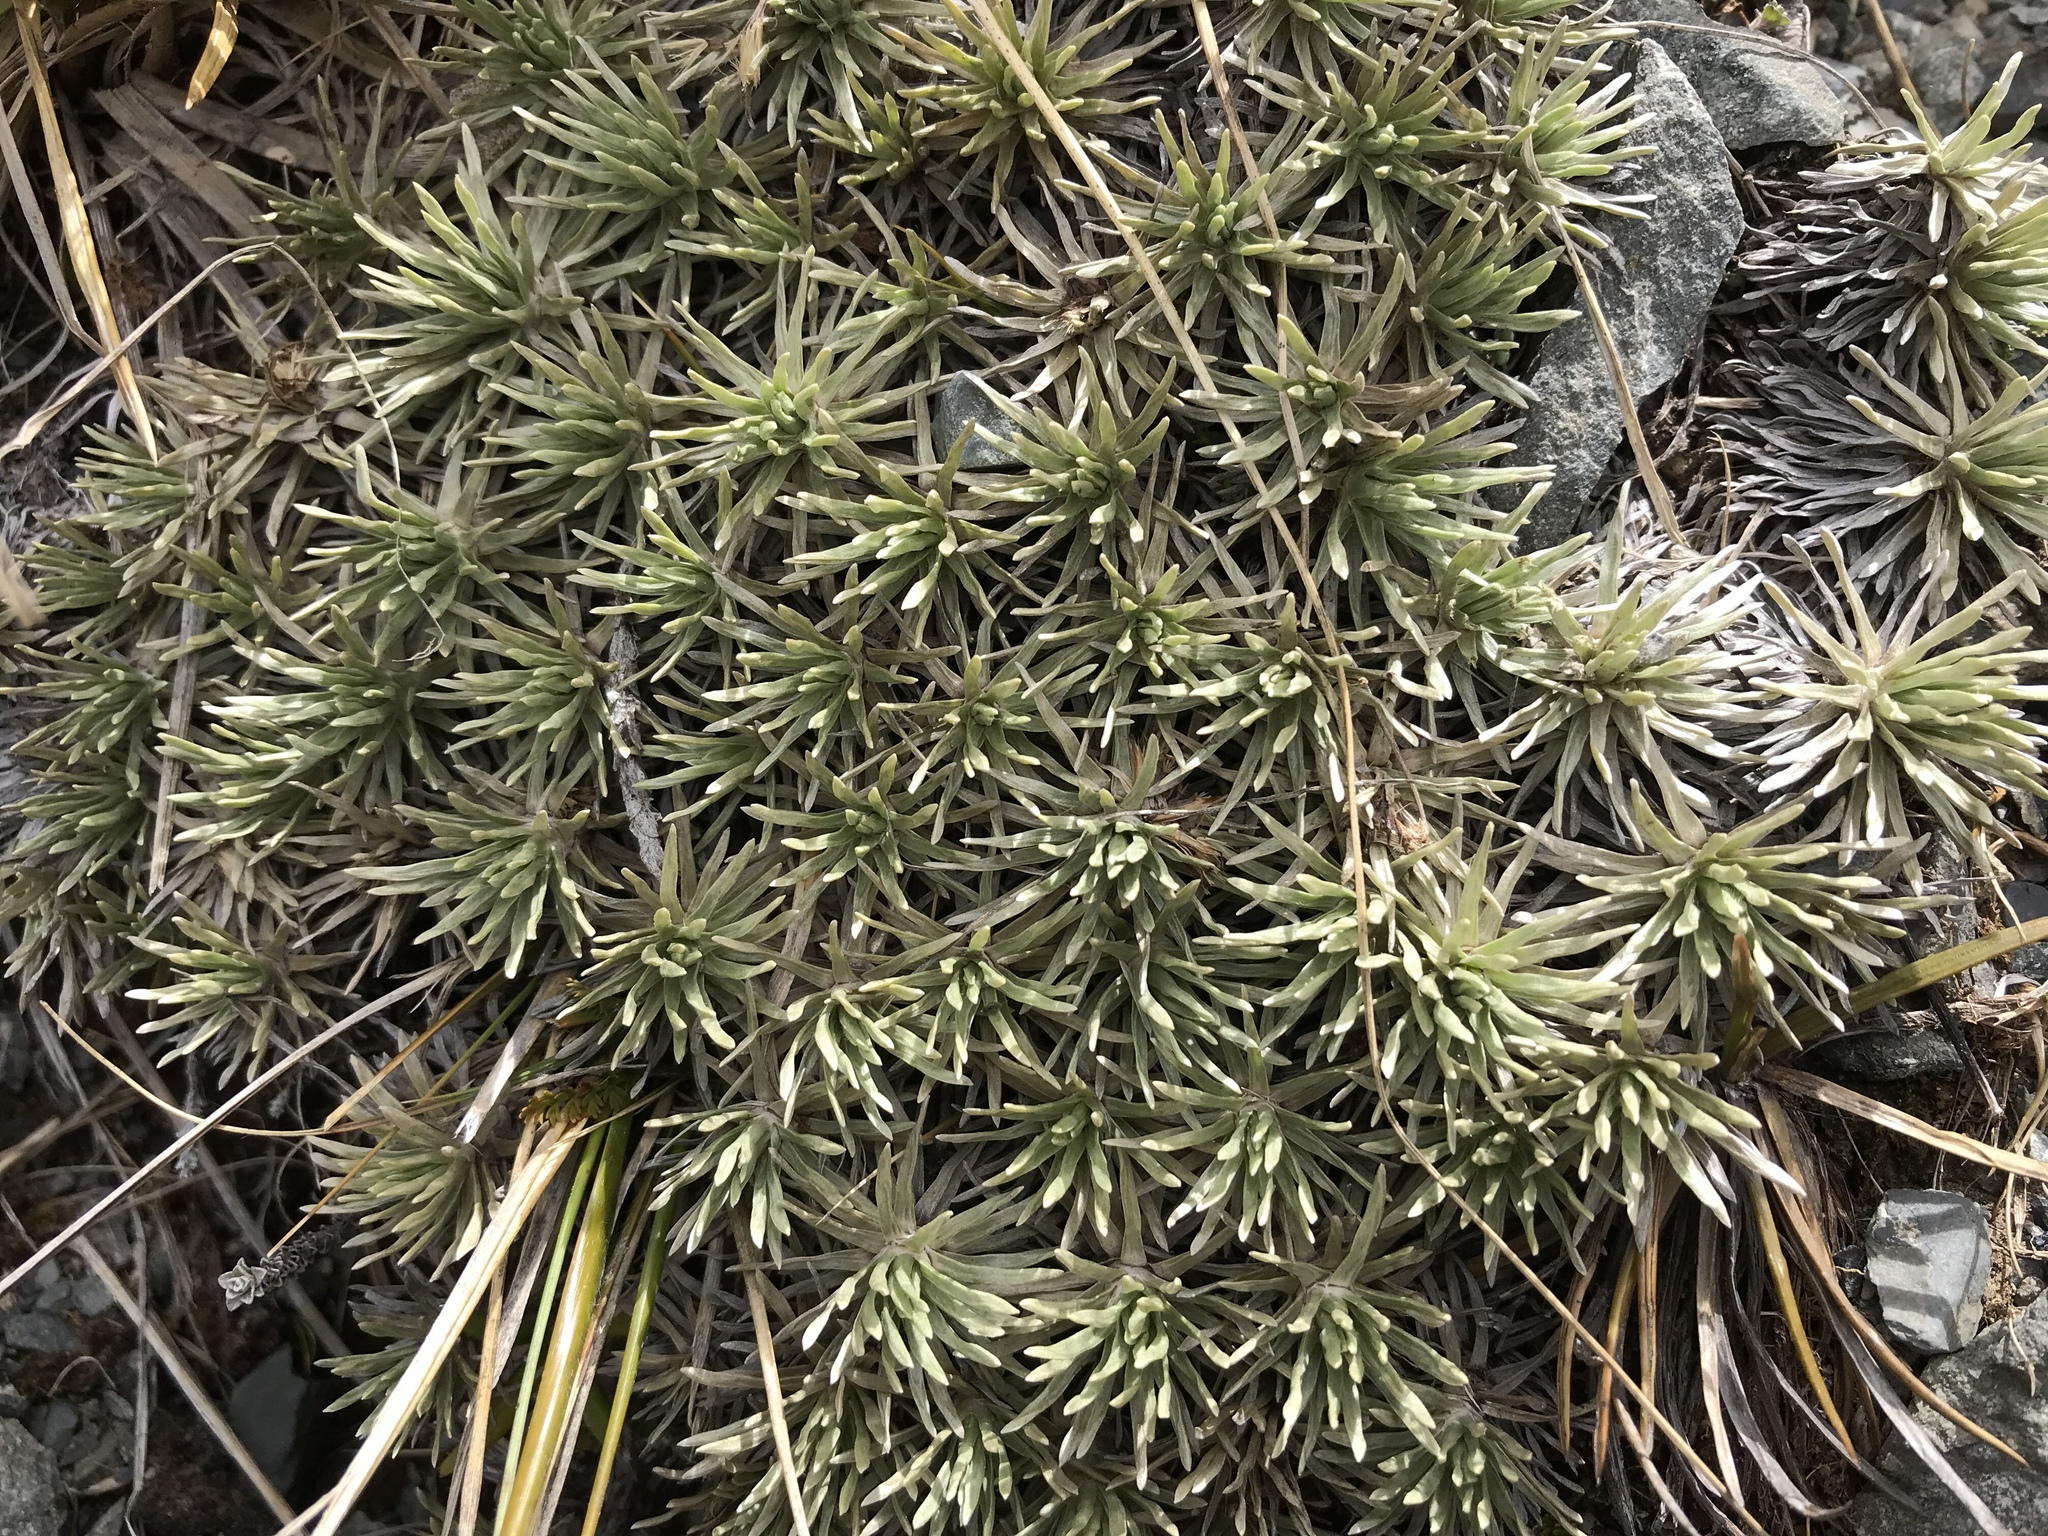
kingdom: Plantae
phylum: Tracheophyta
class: Magnoliopsida
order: Asterales
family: Asteraceae
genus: Celmisia
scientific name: Celmisia sessiliflora
